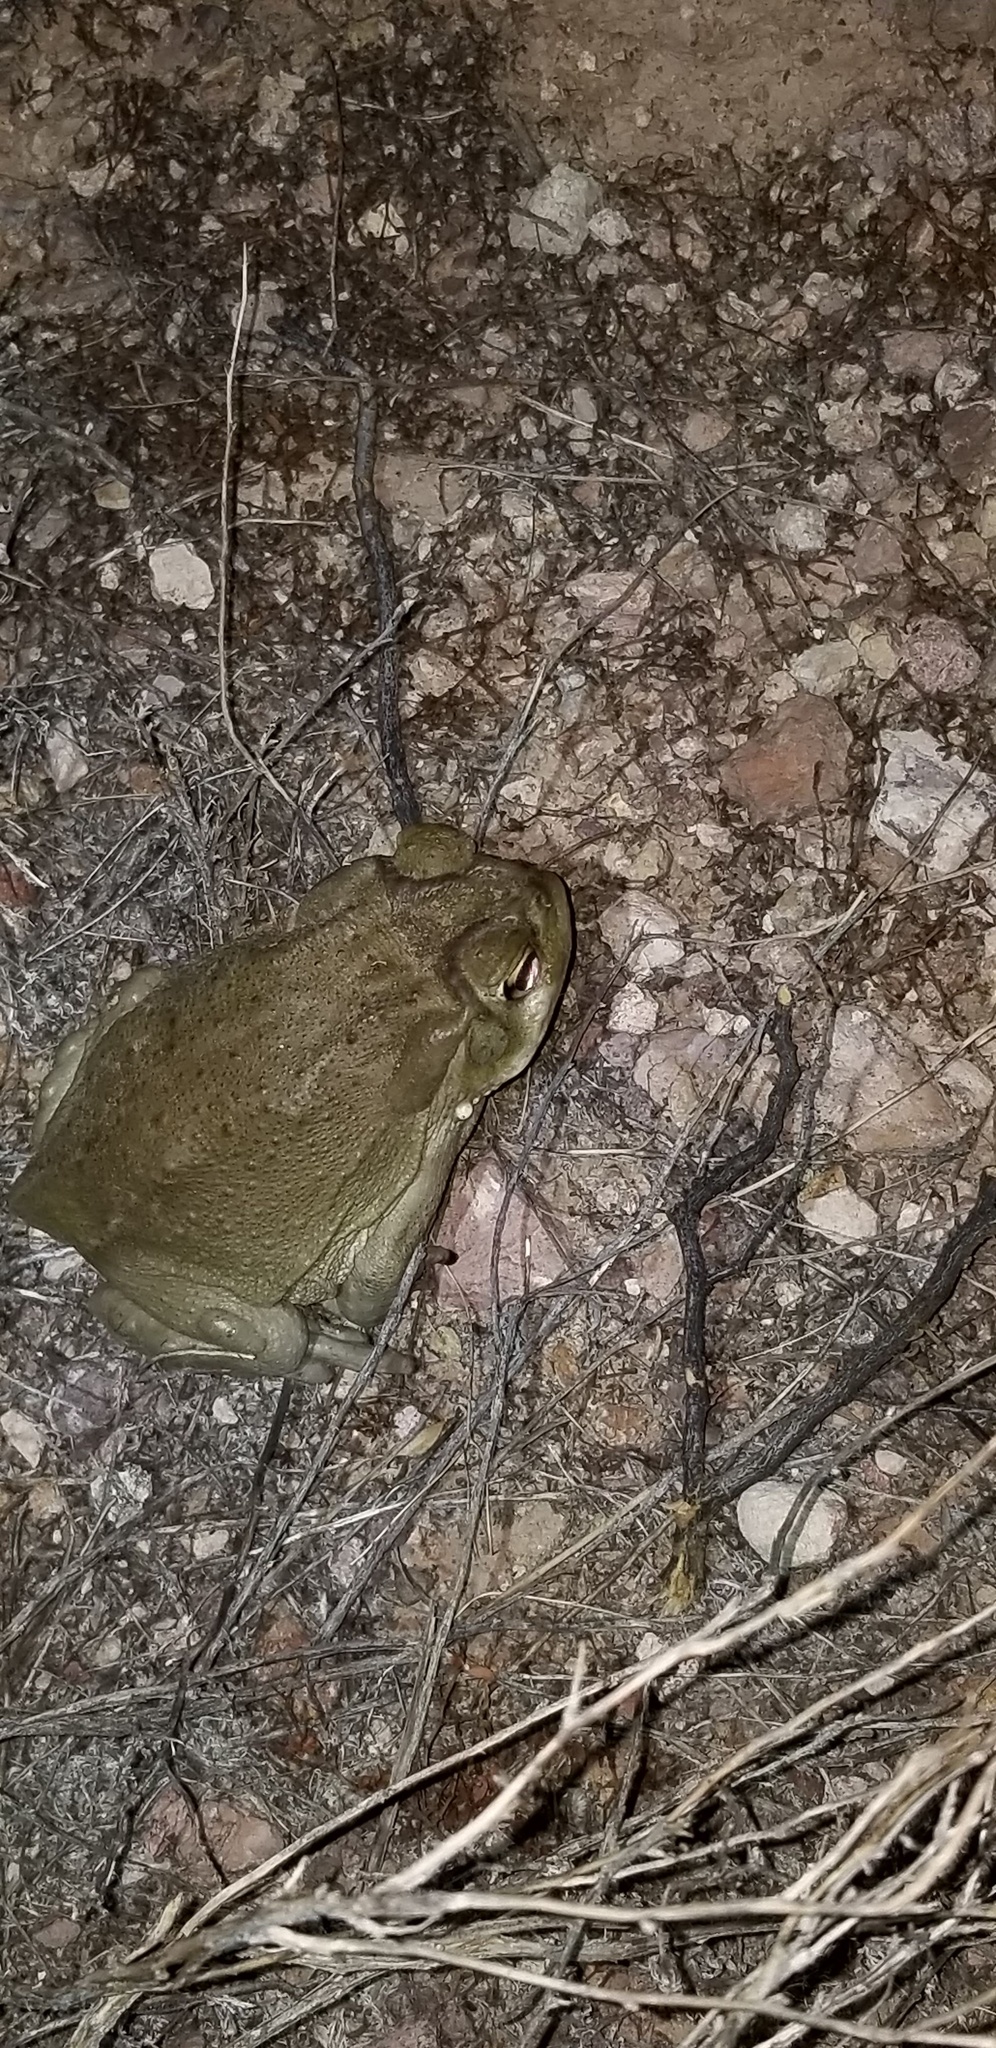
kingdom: Animalia
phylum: Chordata
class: Amphibia
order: Anura
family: Bufonidae
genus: Incilius
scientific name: Incilius alvarius
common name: Sonoran desert toad
